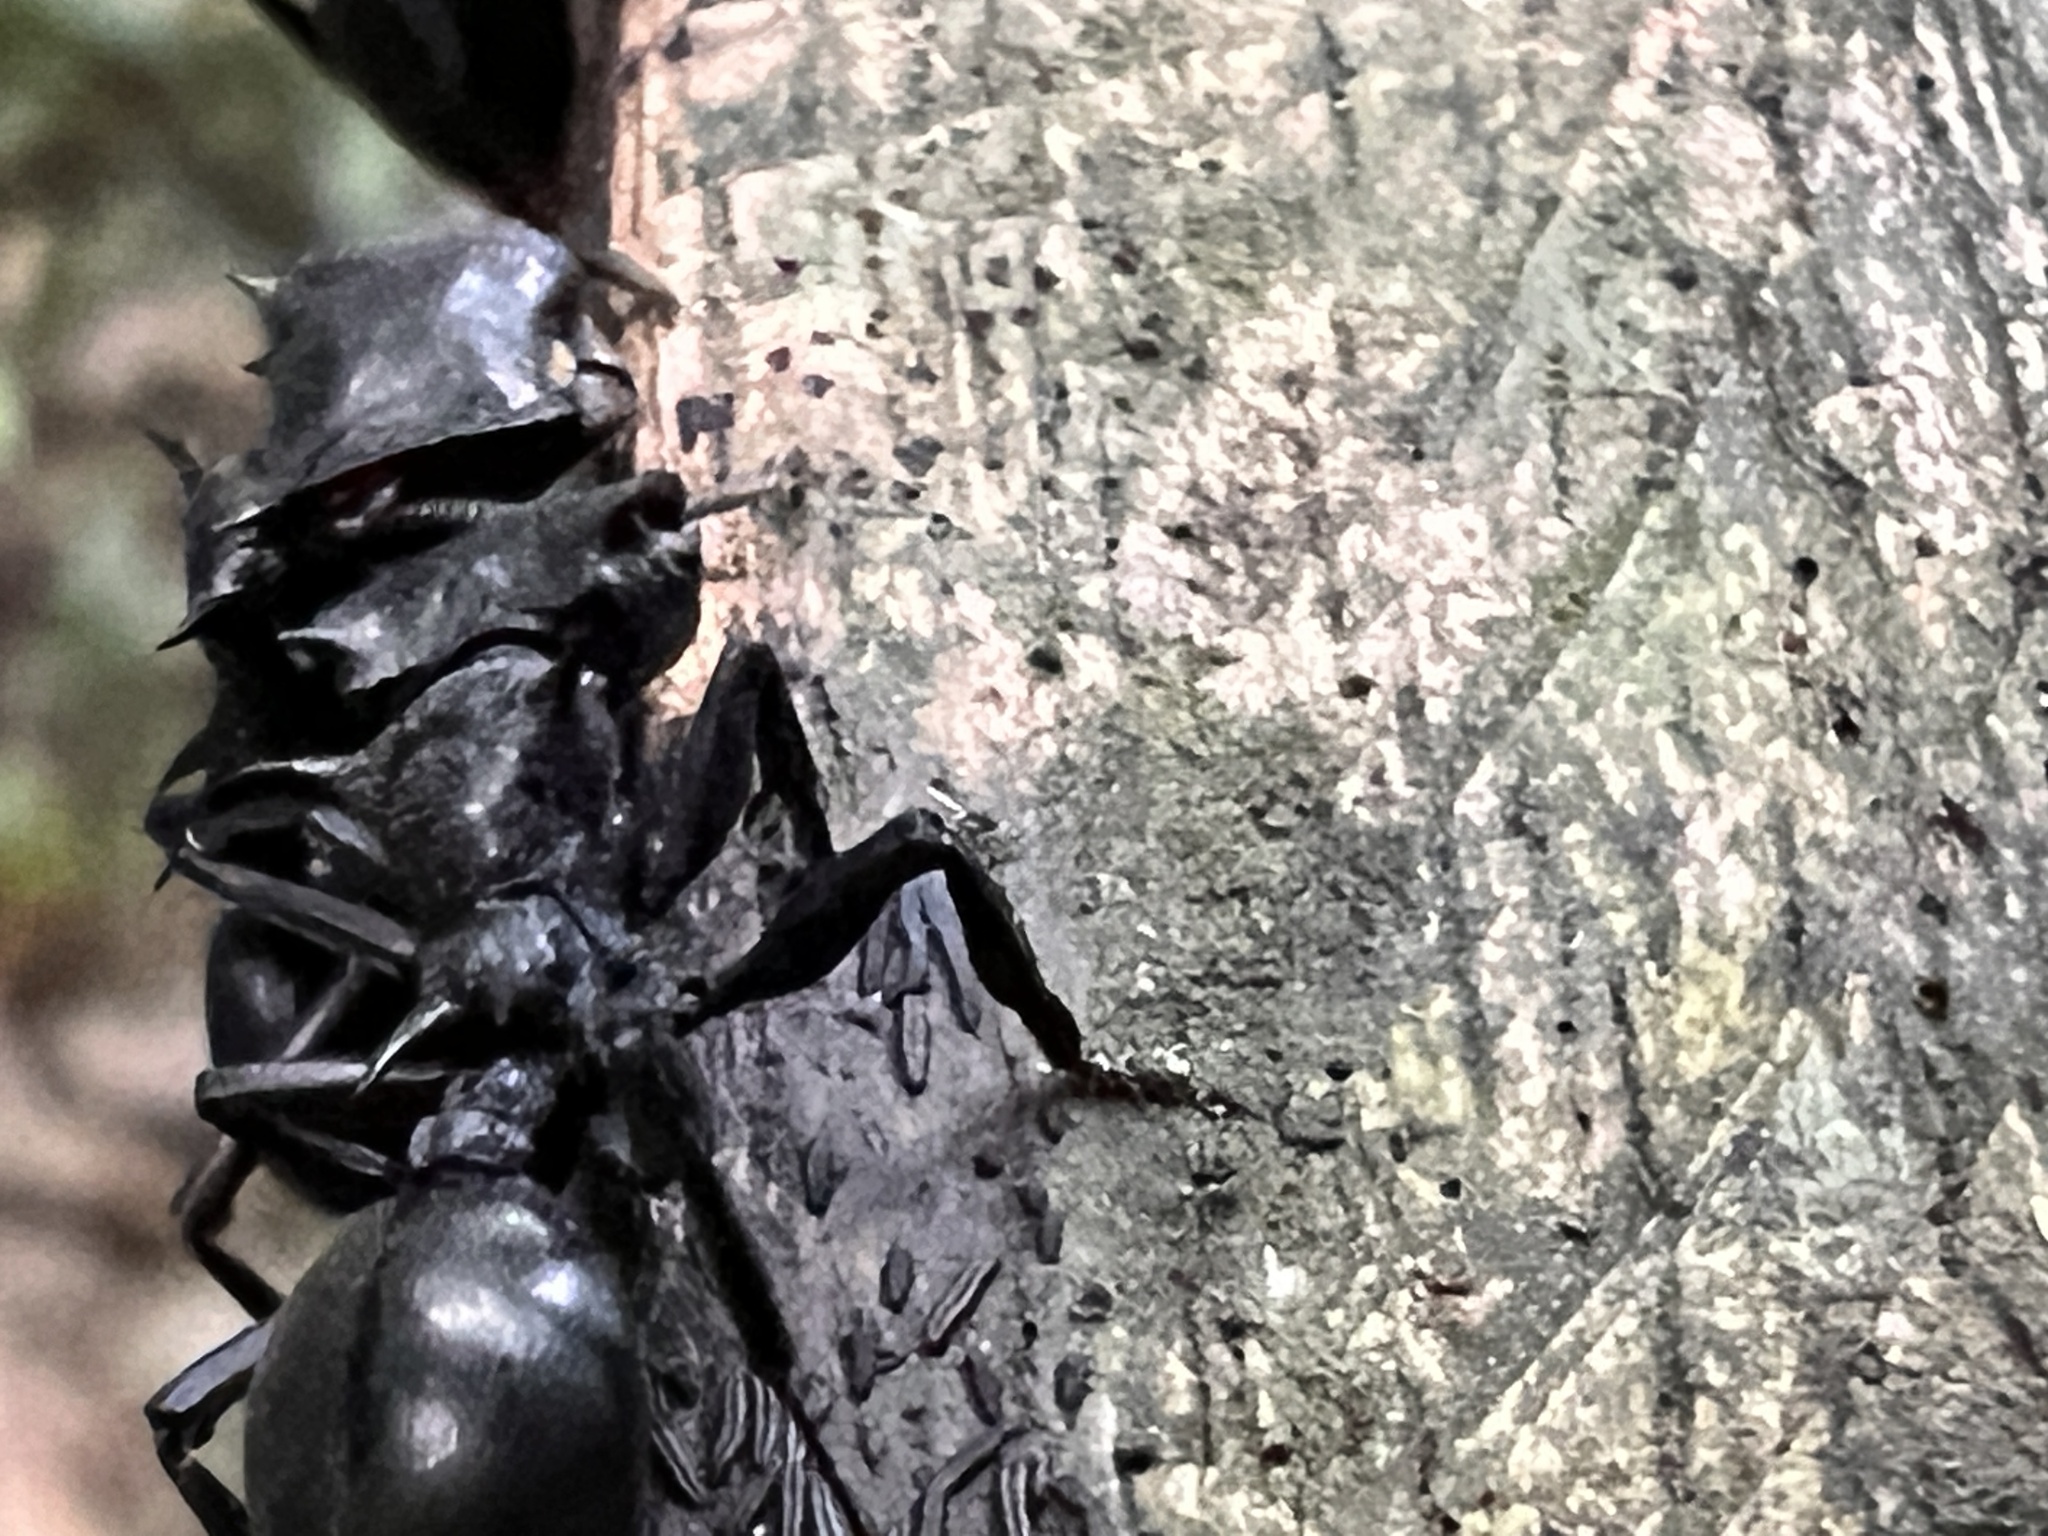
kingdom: Animalia
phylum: Arthropoda
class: Insecta
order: Hymenoptera
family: Formicidae
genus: Cephalotes
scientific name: Cephalotes atratus
